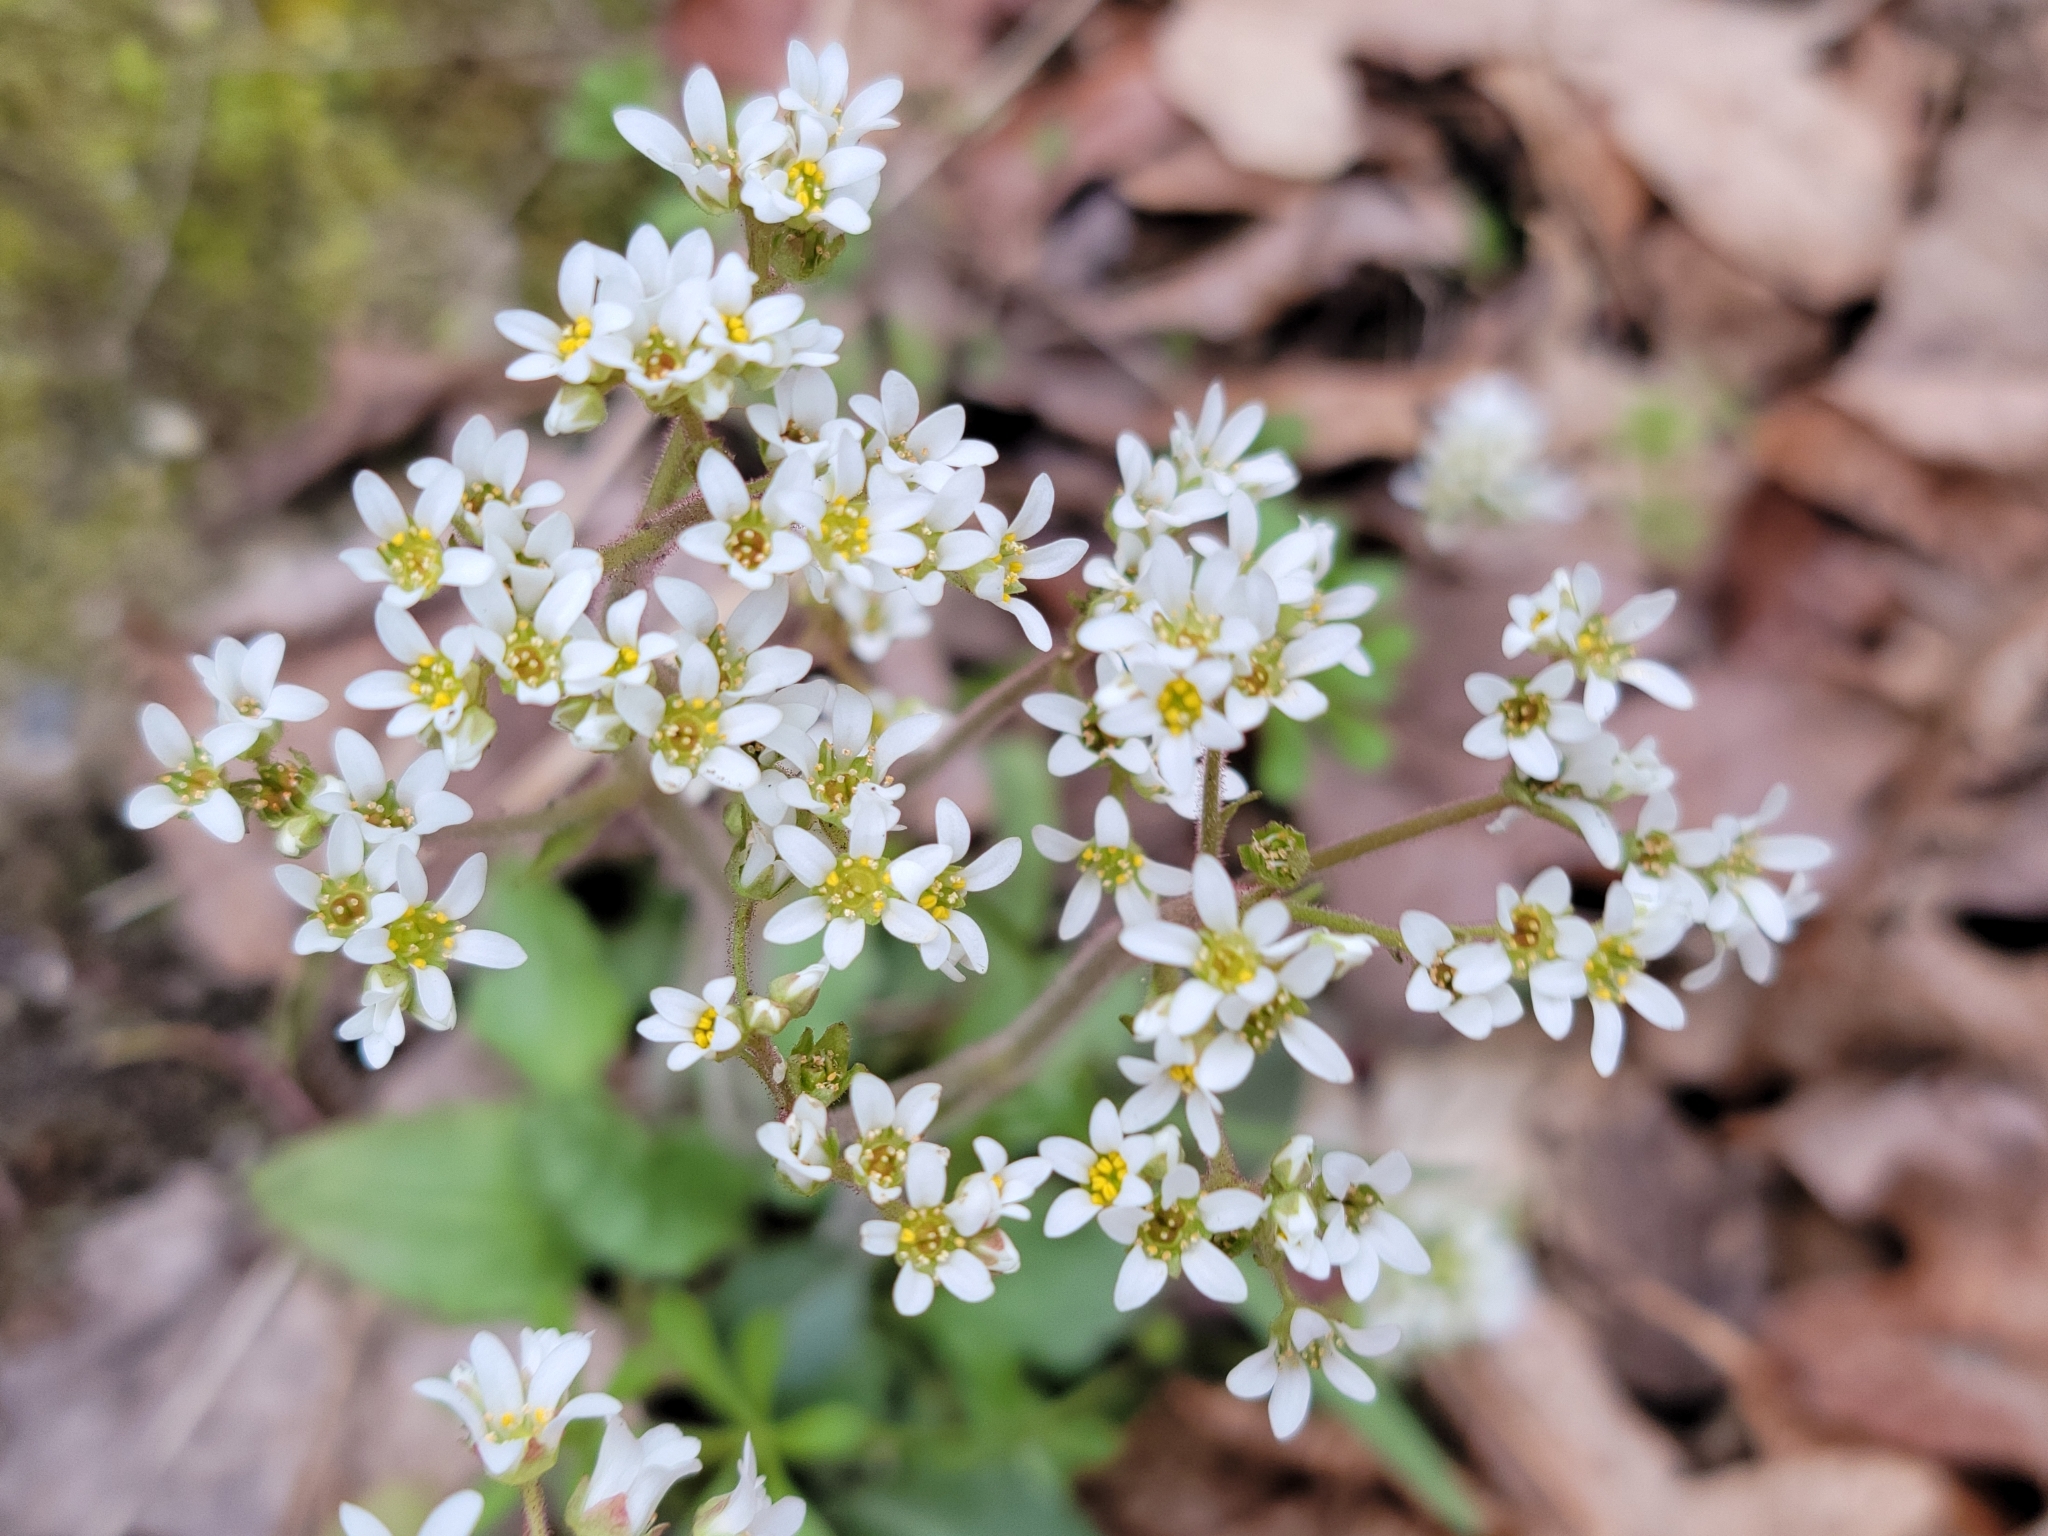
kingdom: Plantae
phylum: Tracheophyta
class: Magnoliopsida
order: Saxifragales
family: Saxifragaceae
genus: Micranthes
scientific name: Micranthes virginiensis
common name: Early saxifrage
